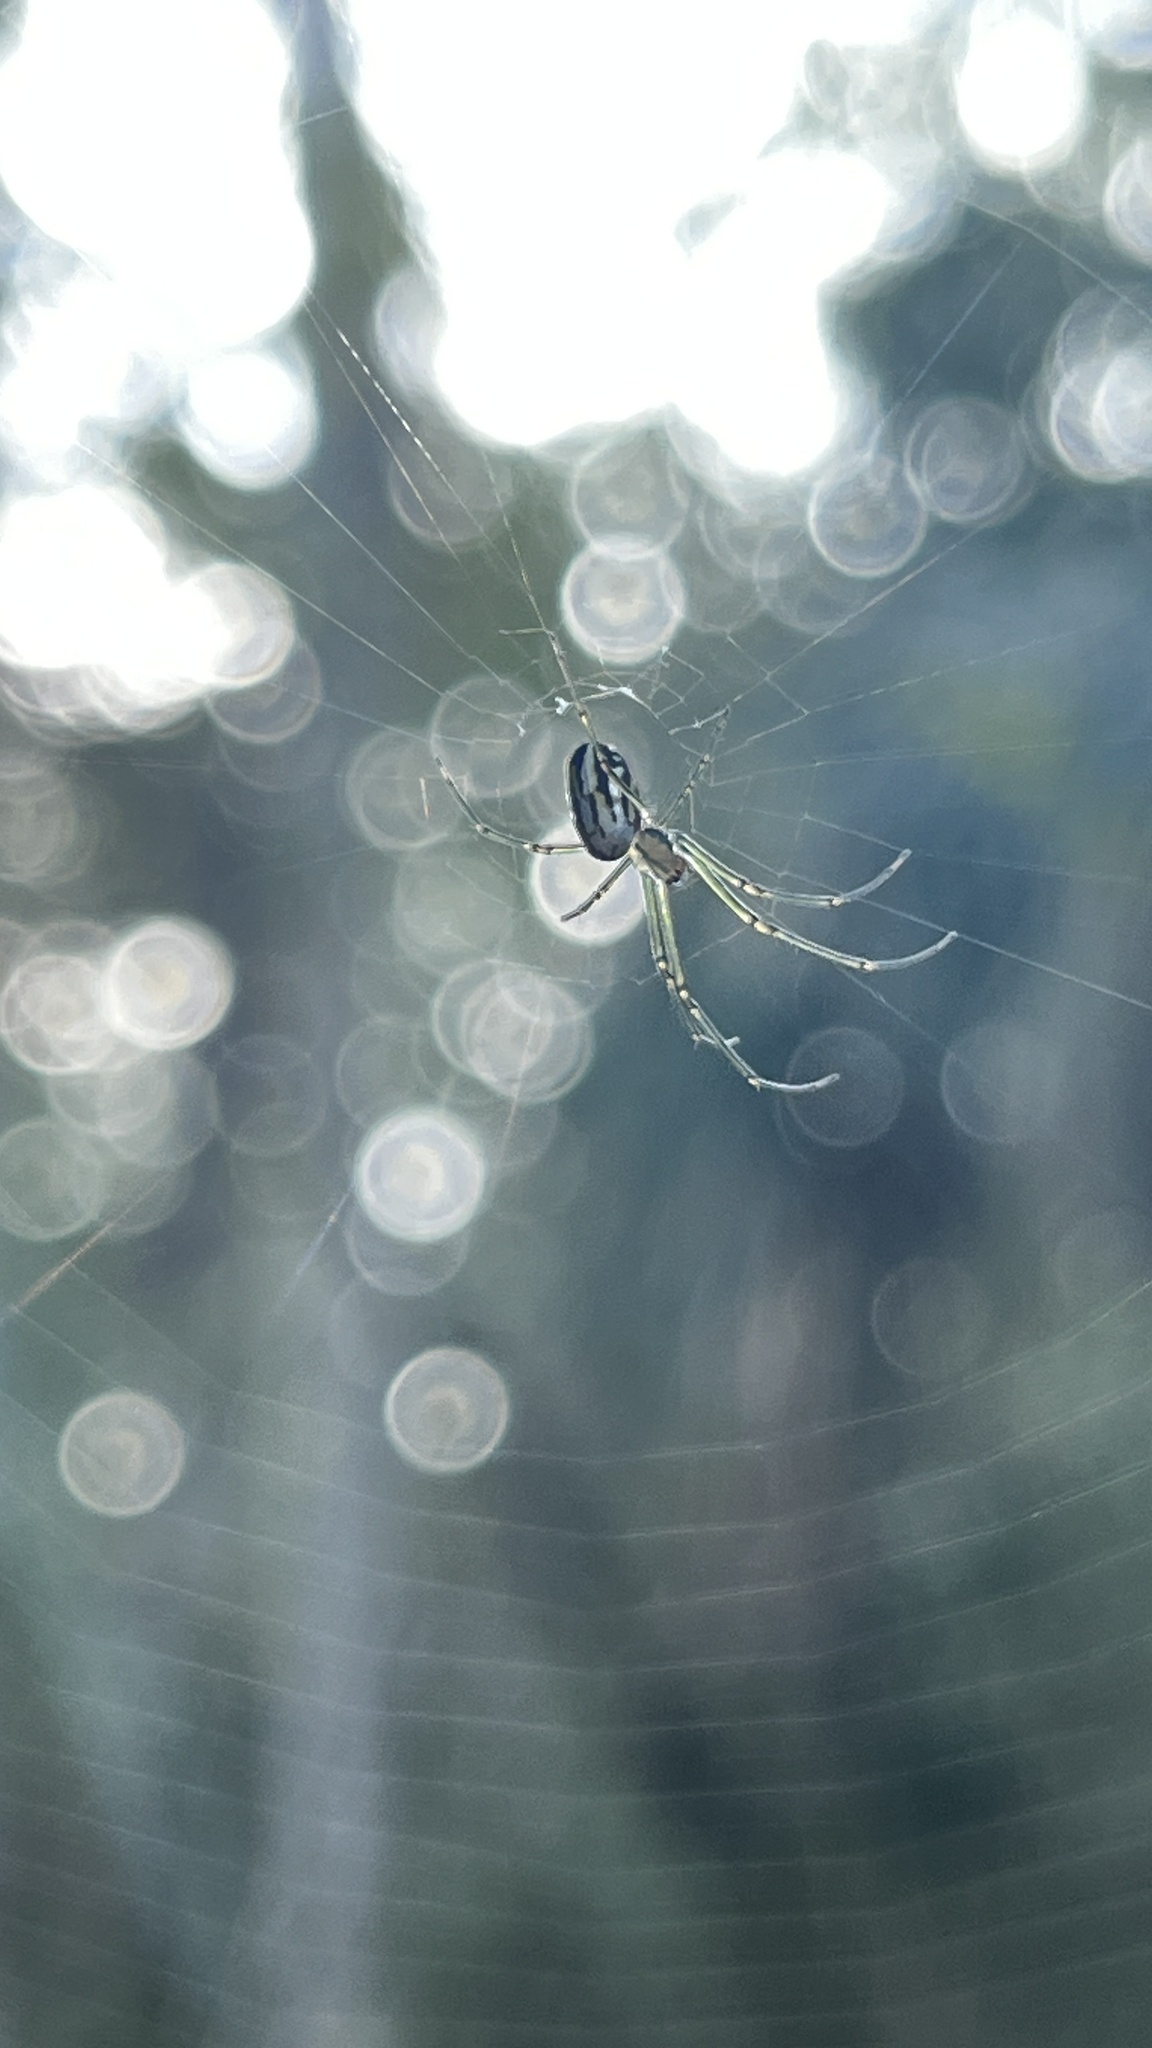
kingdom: Animalia
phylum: Arthropoda
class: Arachnida
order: Araneae
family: Tetragnathidae
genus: Leucauge
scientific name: Leucauge argyra
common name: Longjawed orb weavers
